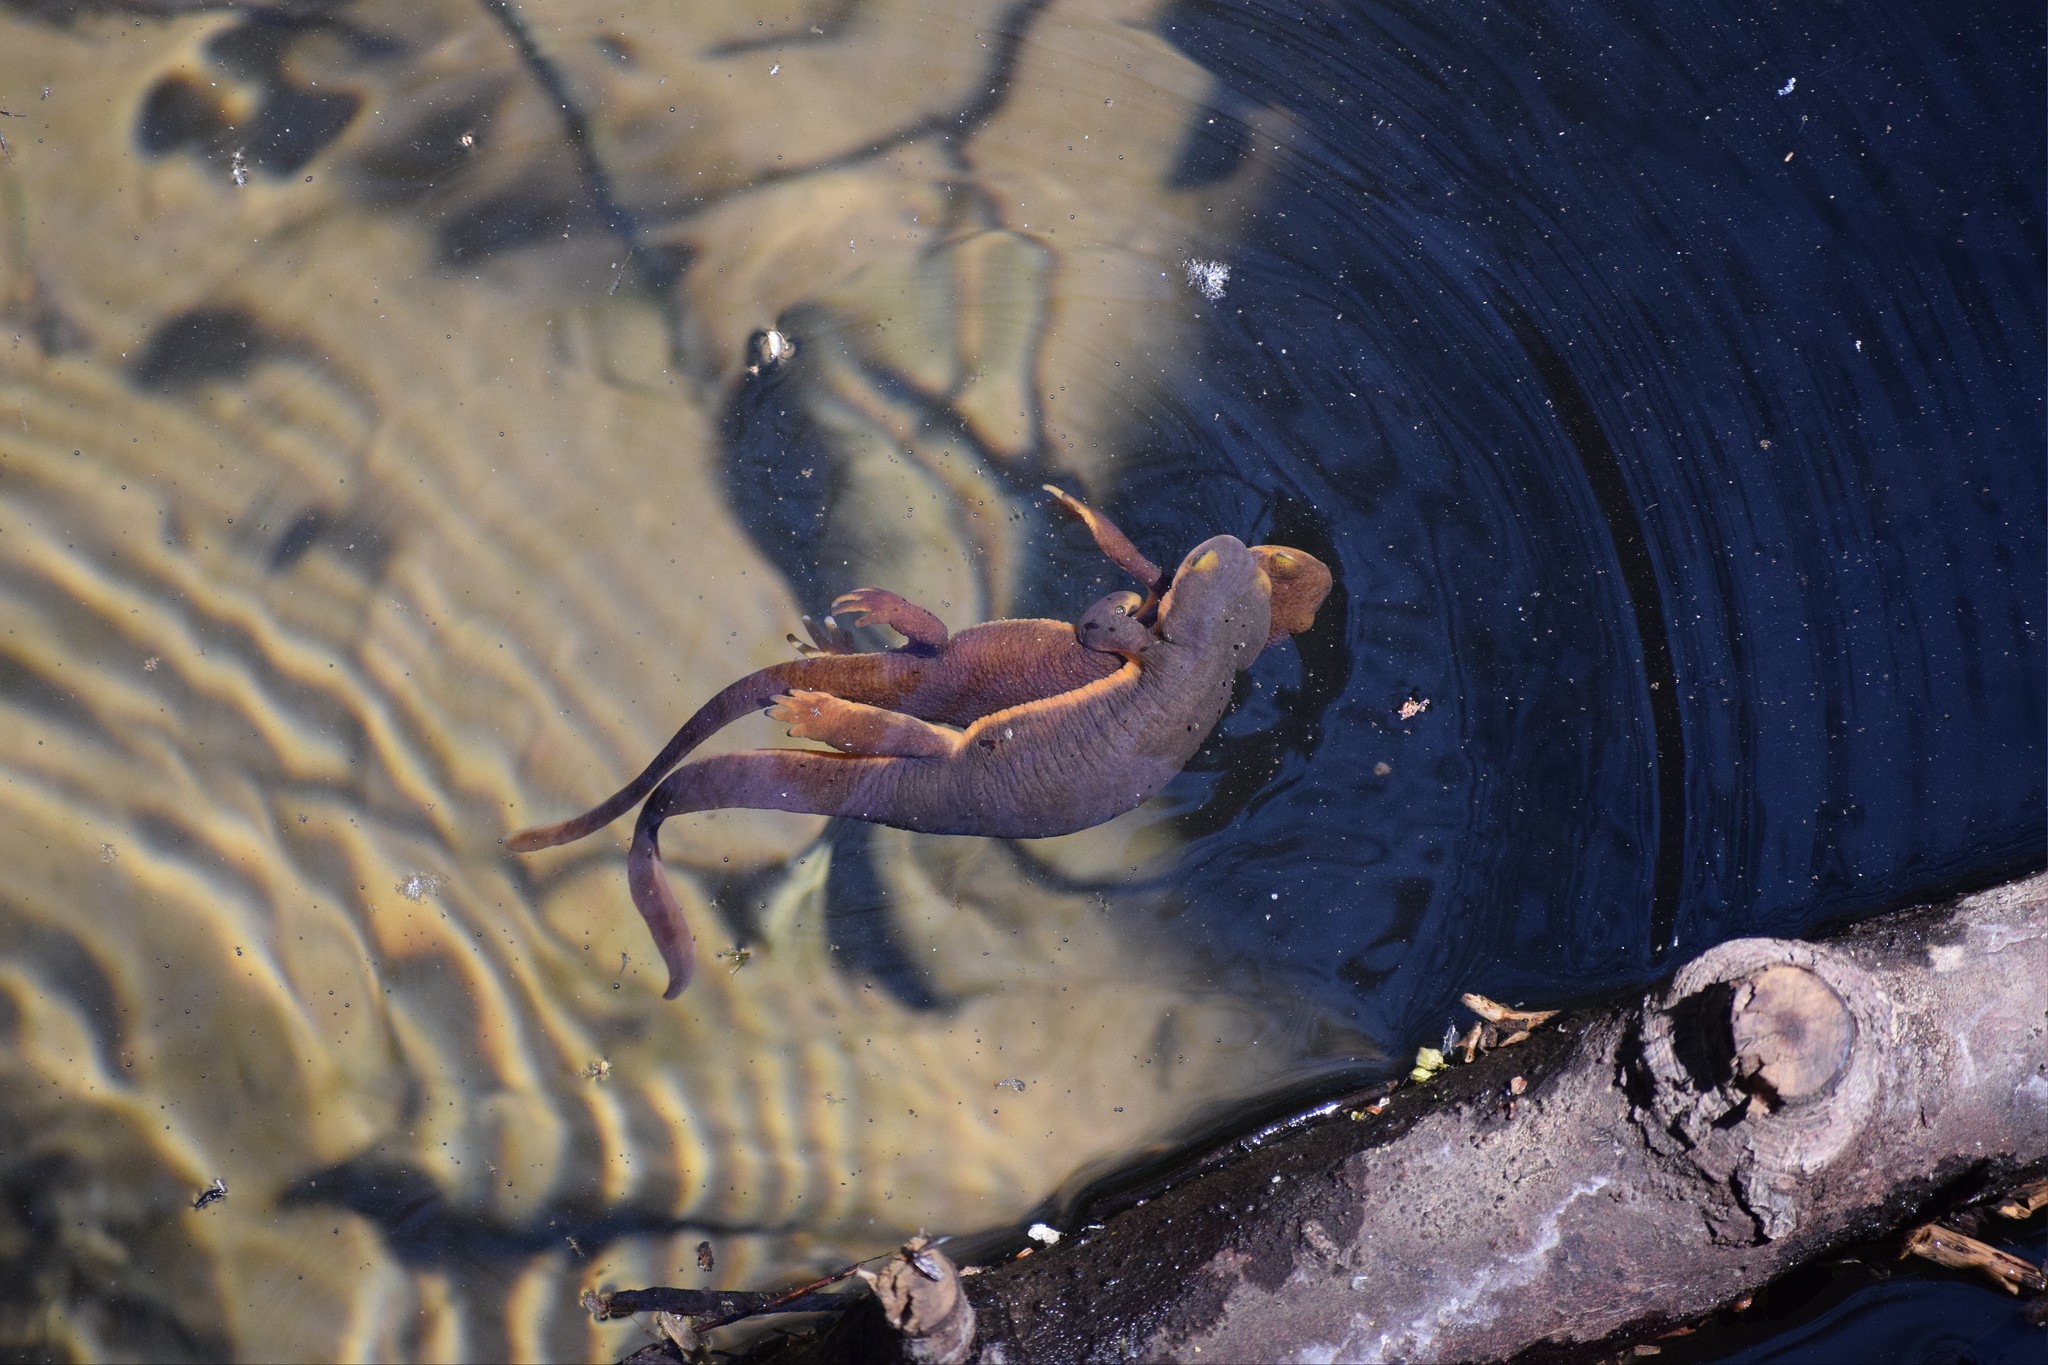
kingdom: Animalia
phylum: Chordata
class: Amphibia
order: Caudata
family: Salamandridae
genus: Taricha
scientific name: Taricha torosa
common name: California newt
